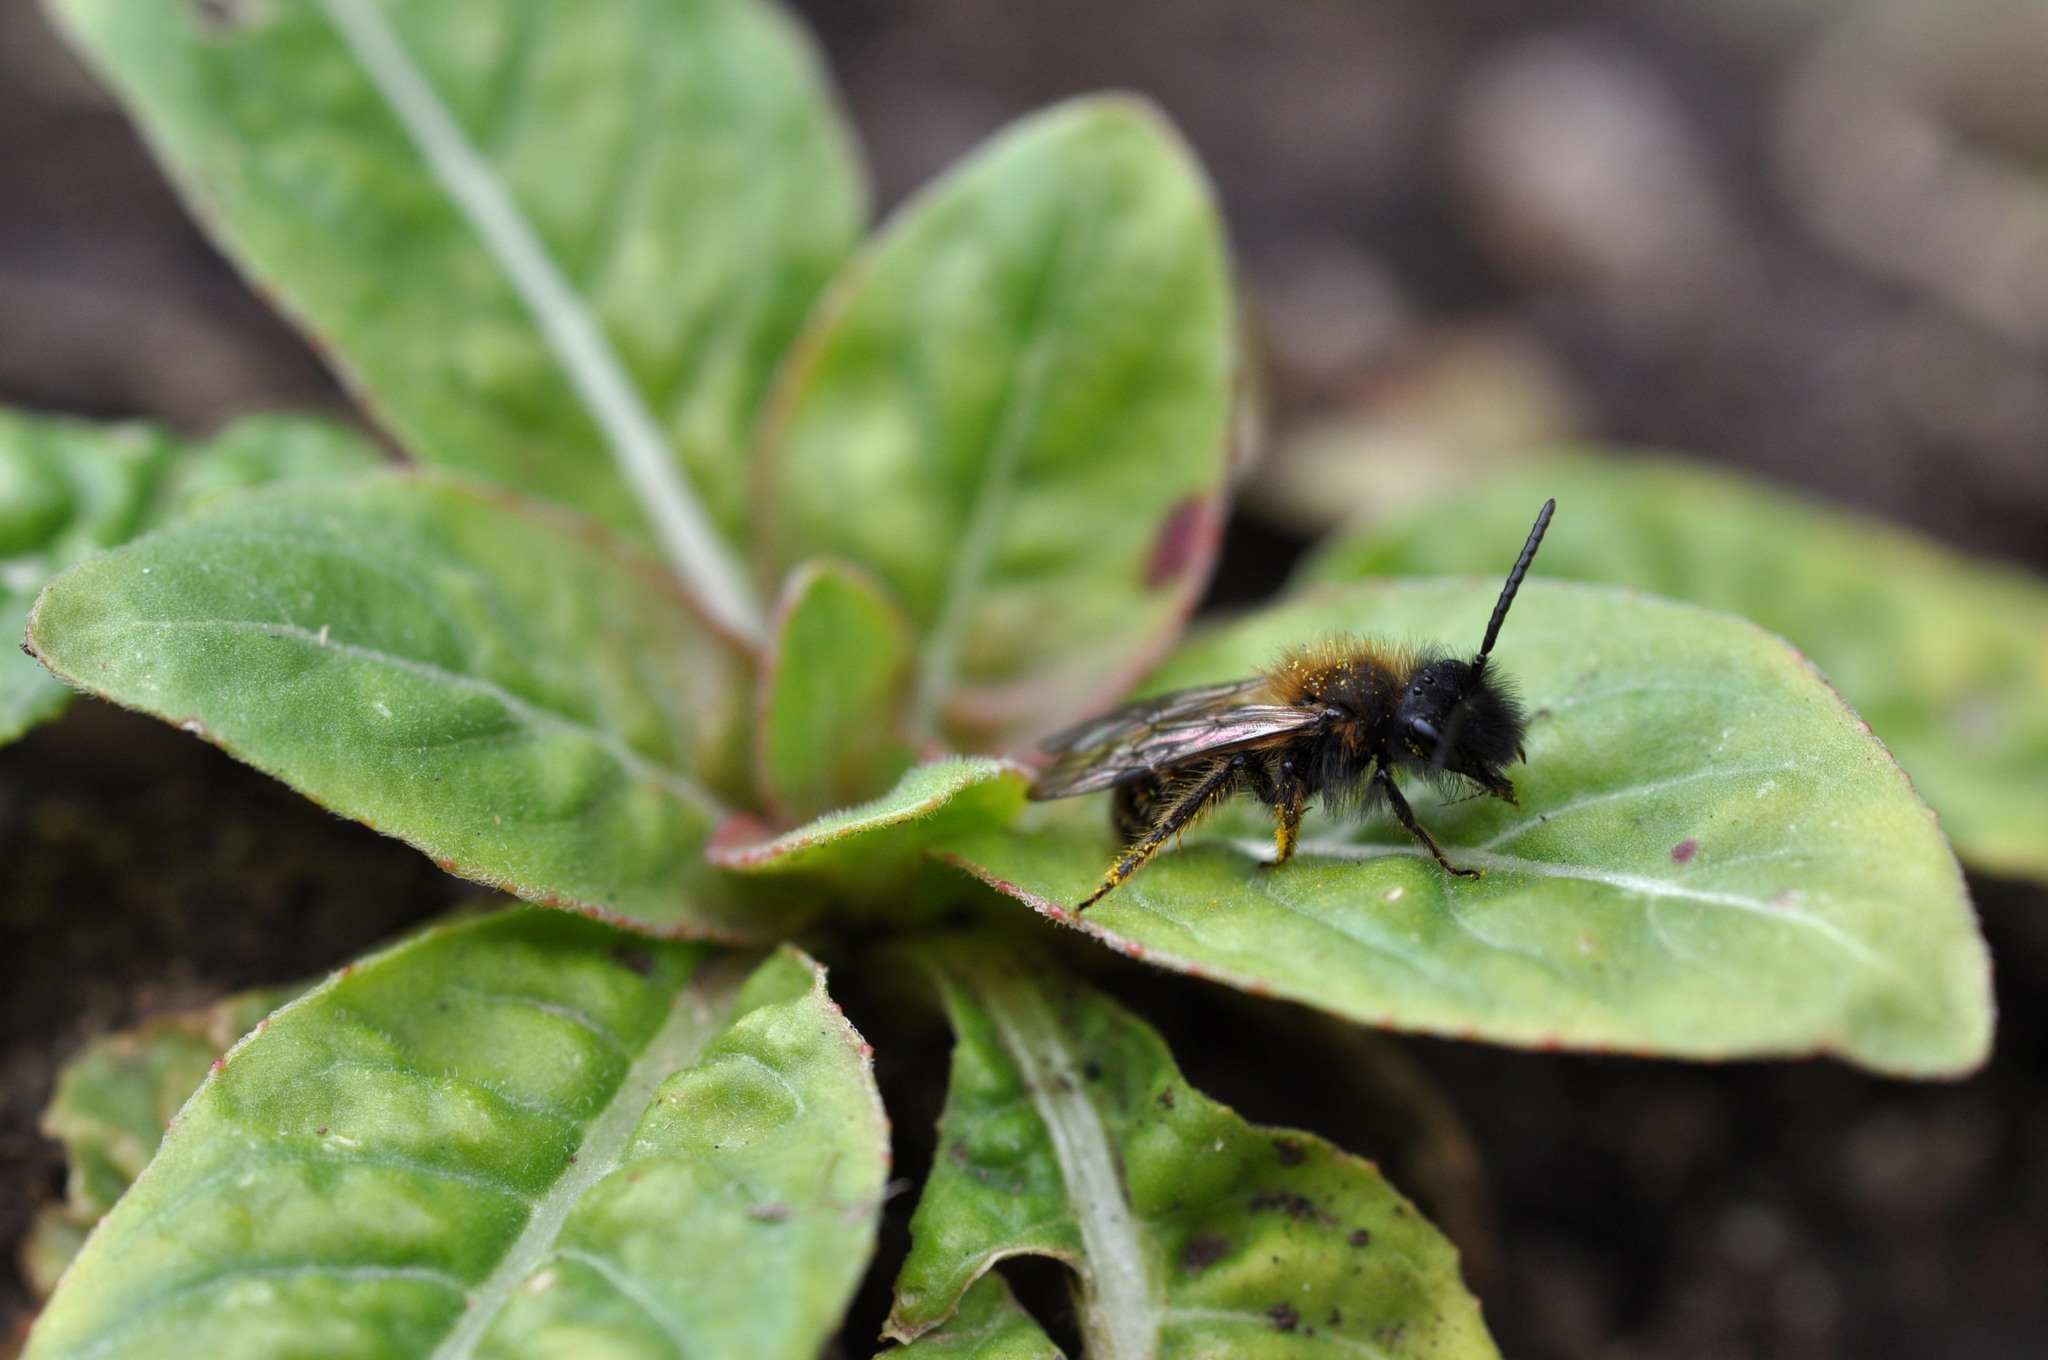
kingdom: Animalia
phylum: Arthropoda
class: Insecta
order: Hymenoptera
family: Andrenidae
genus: Andrena
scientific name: Andrena bicolor
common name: Gwynne's mining bee
